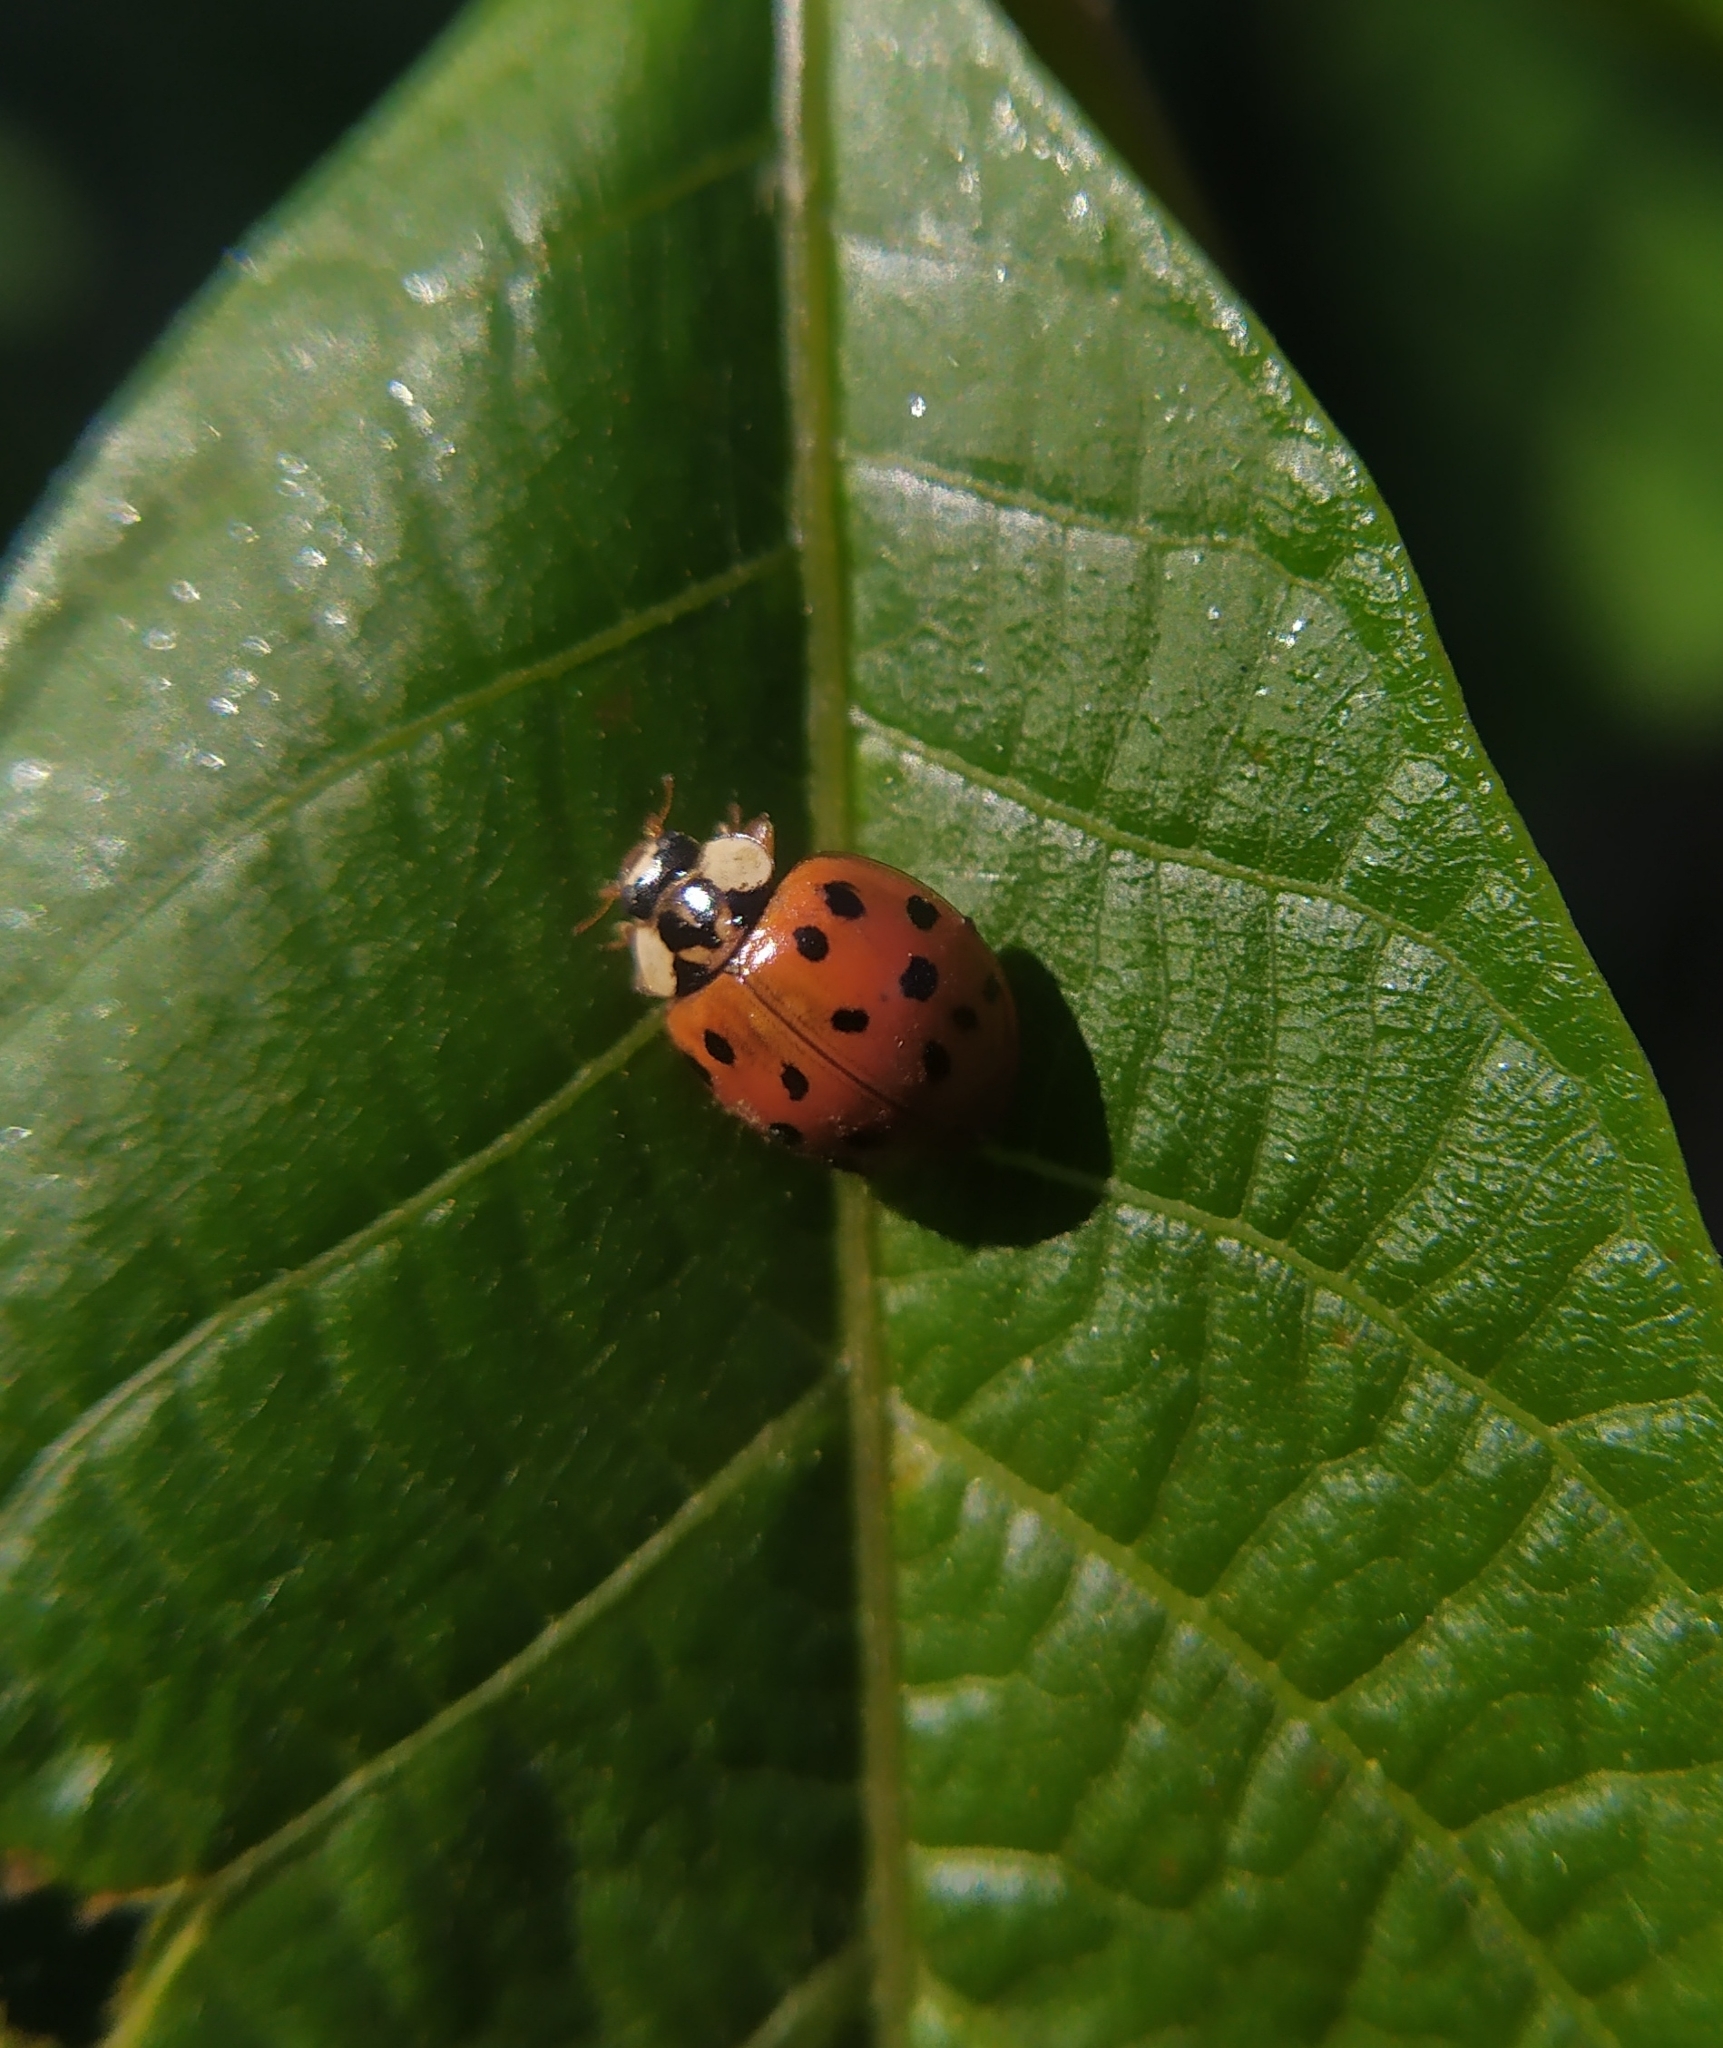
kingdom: Animalia
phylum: Arthropoda
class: Insecta
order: Coleoptera
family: Coccinellidae
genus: Harmonia
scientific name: Harmonia axyridis
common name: Harlequin ladybird
